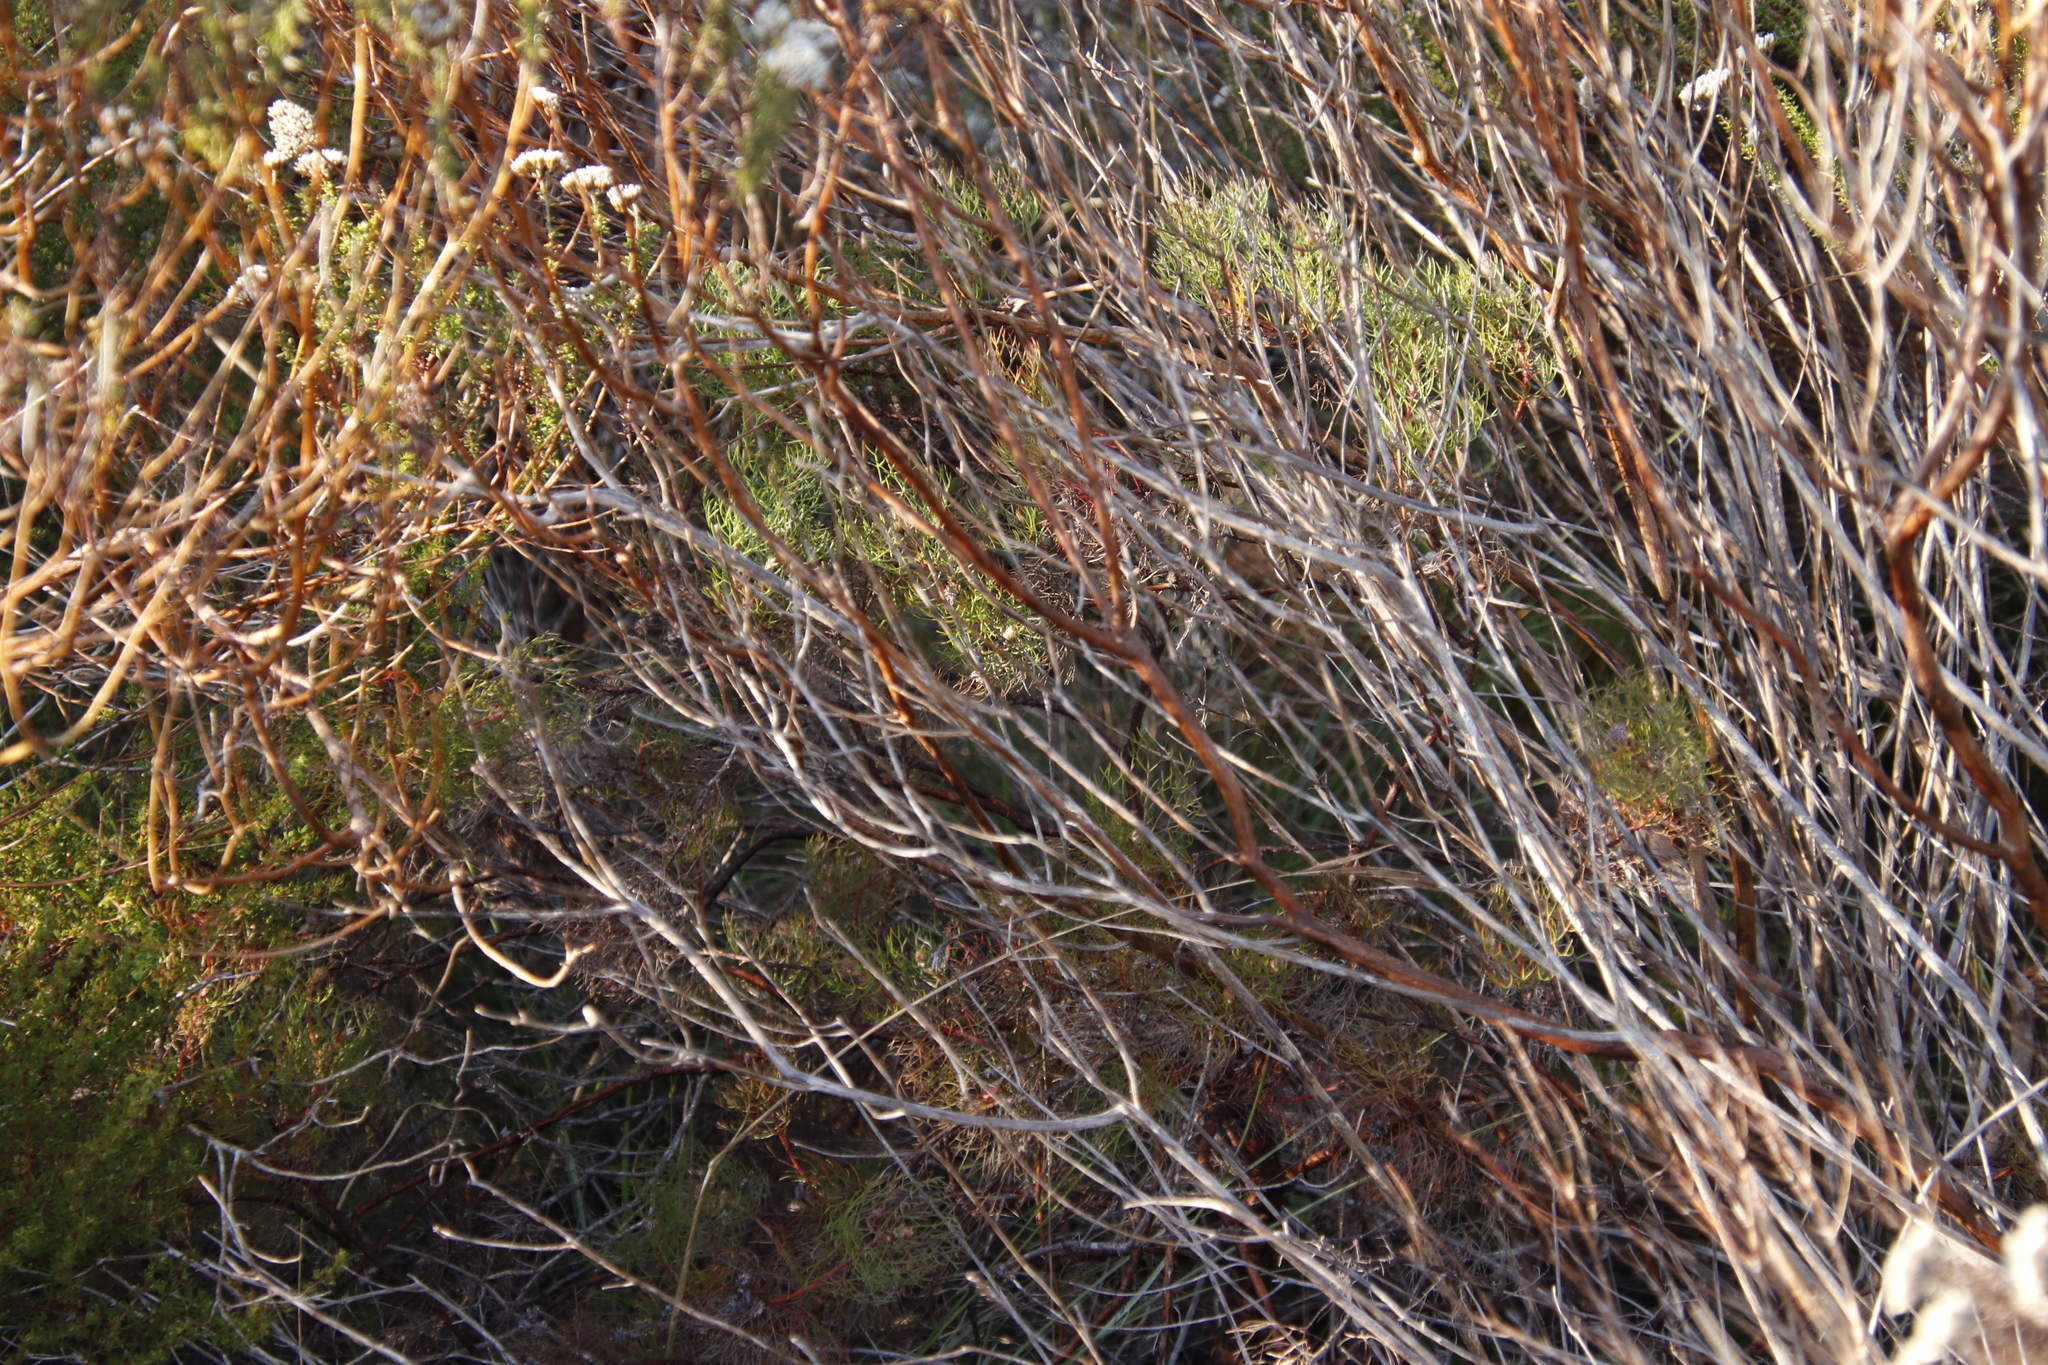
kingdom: Plantae
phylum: Tracheophyta
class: Magnoliopsida
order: Proteales
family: Proteaceae
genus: Serruria
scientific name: Serruria fasciflora
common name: Common pin spiderhead
